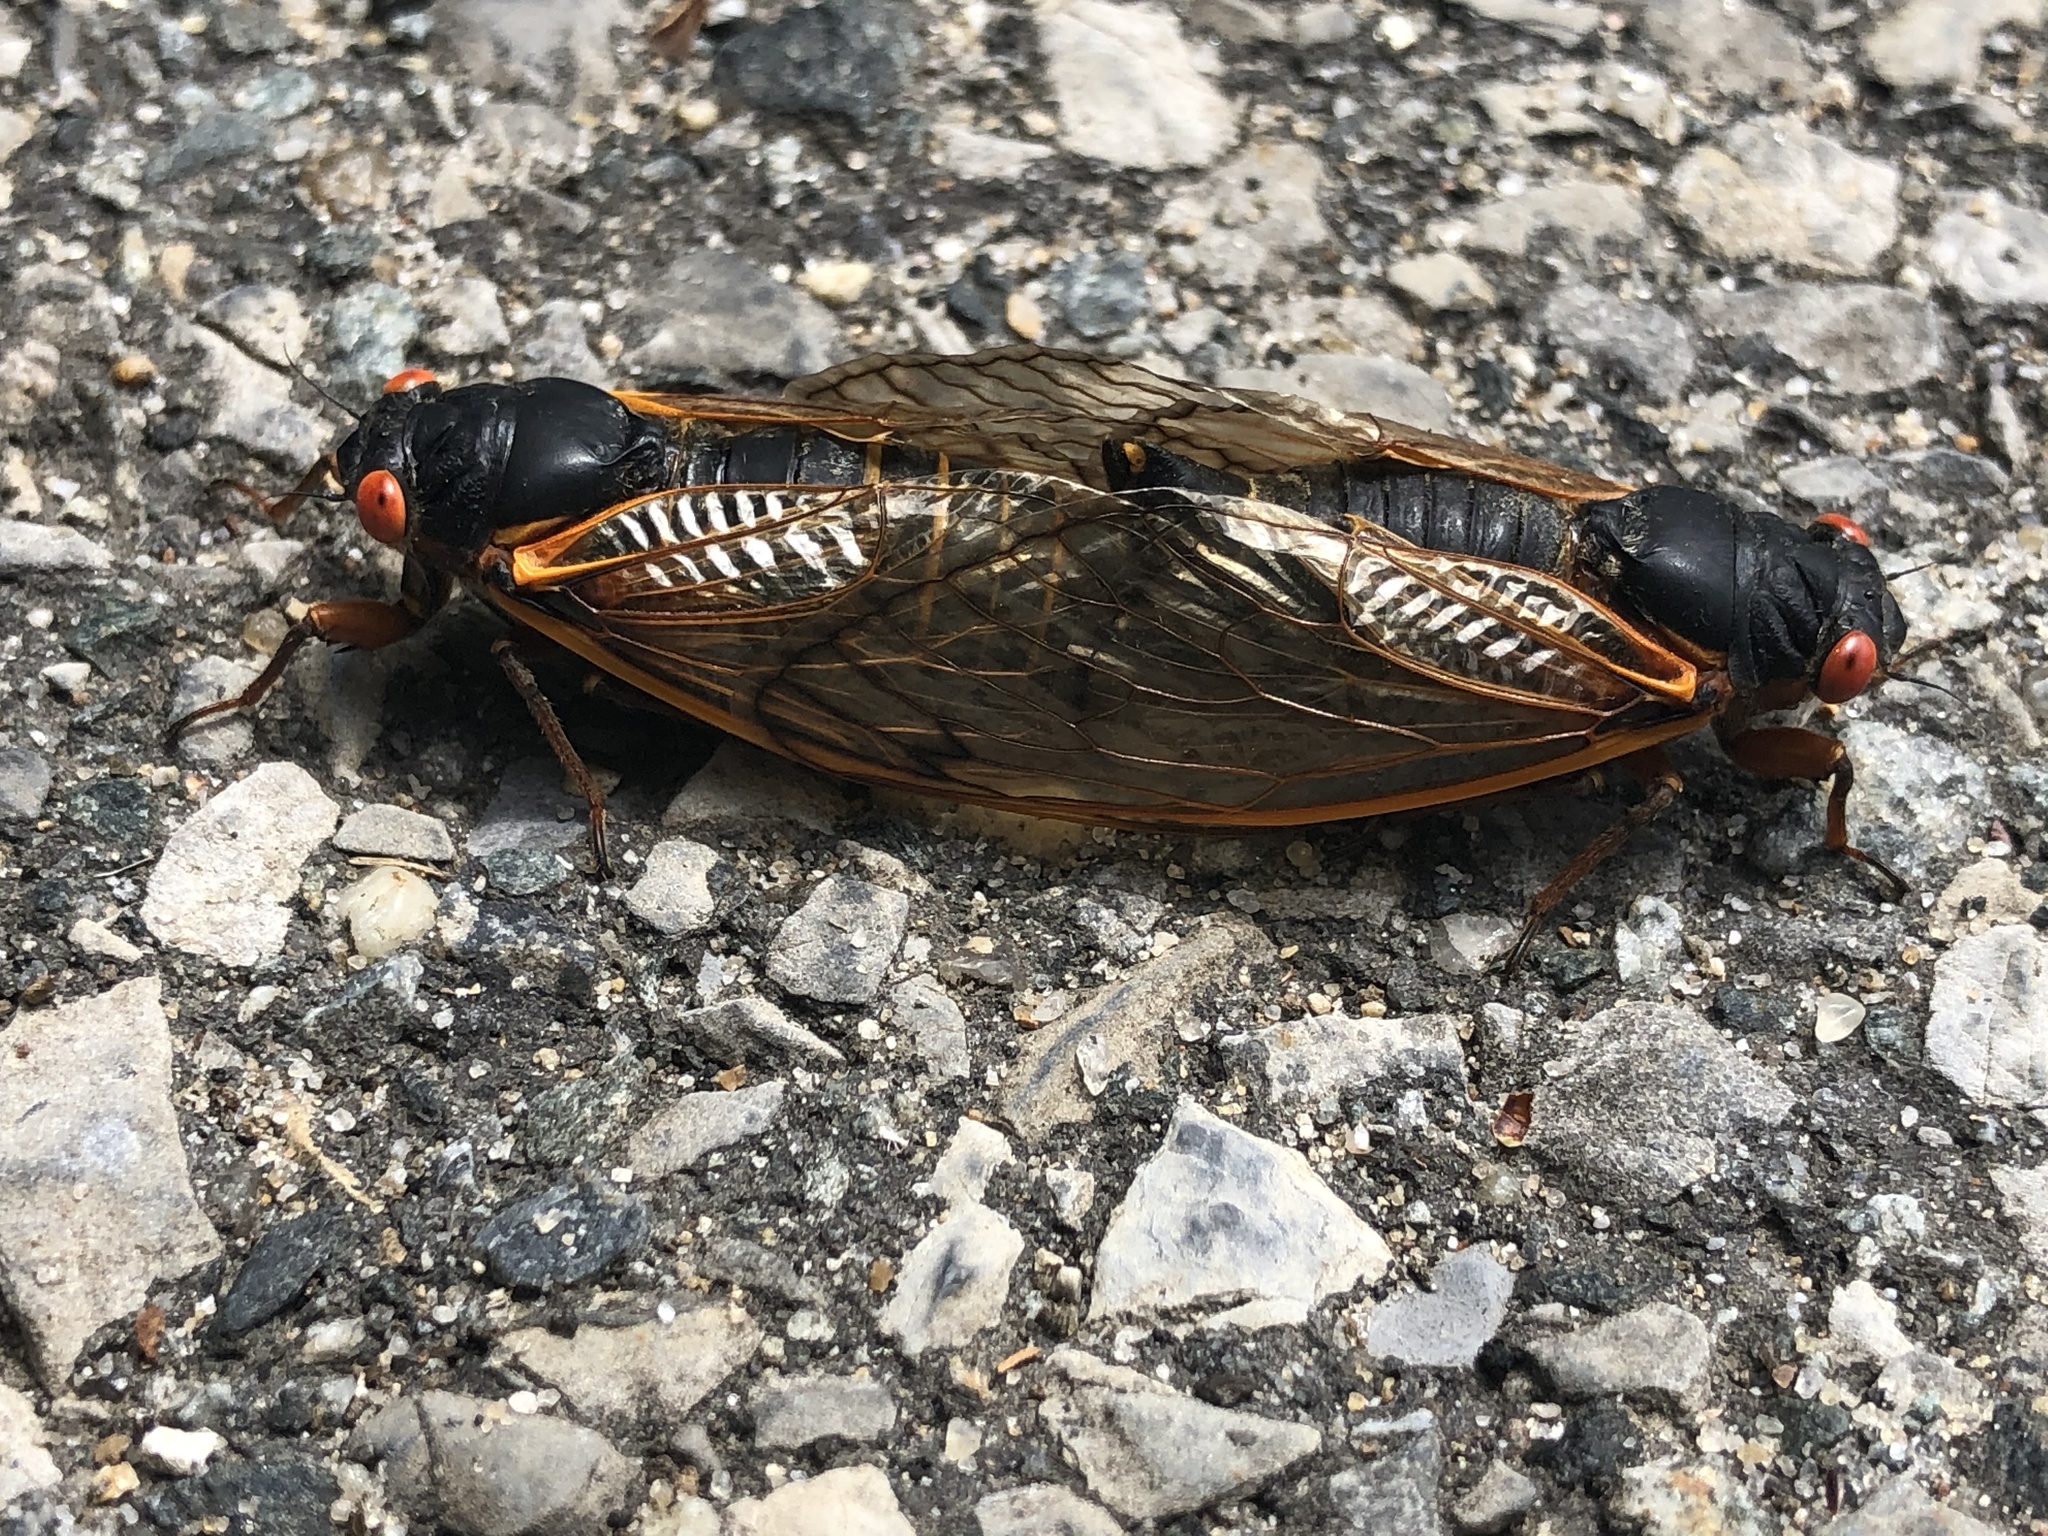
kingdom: Animalia
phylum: Arthropoda
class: Insecta
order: Hemiptera
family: Cicadidae
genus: Magicicada
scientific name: Magicicada septendecim
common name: Periodical cicada
